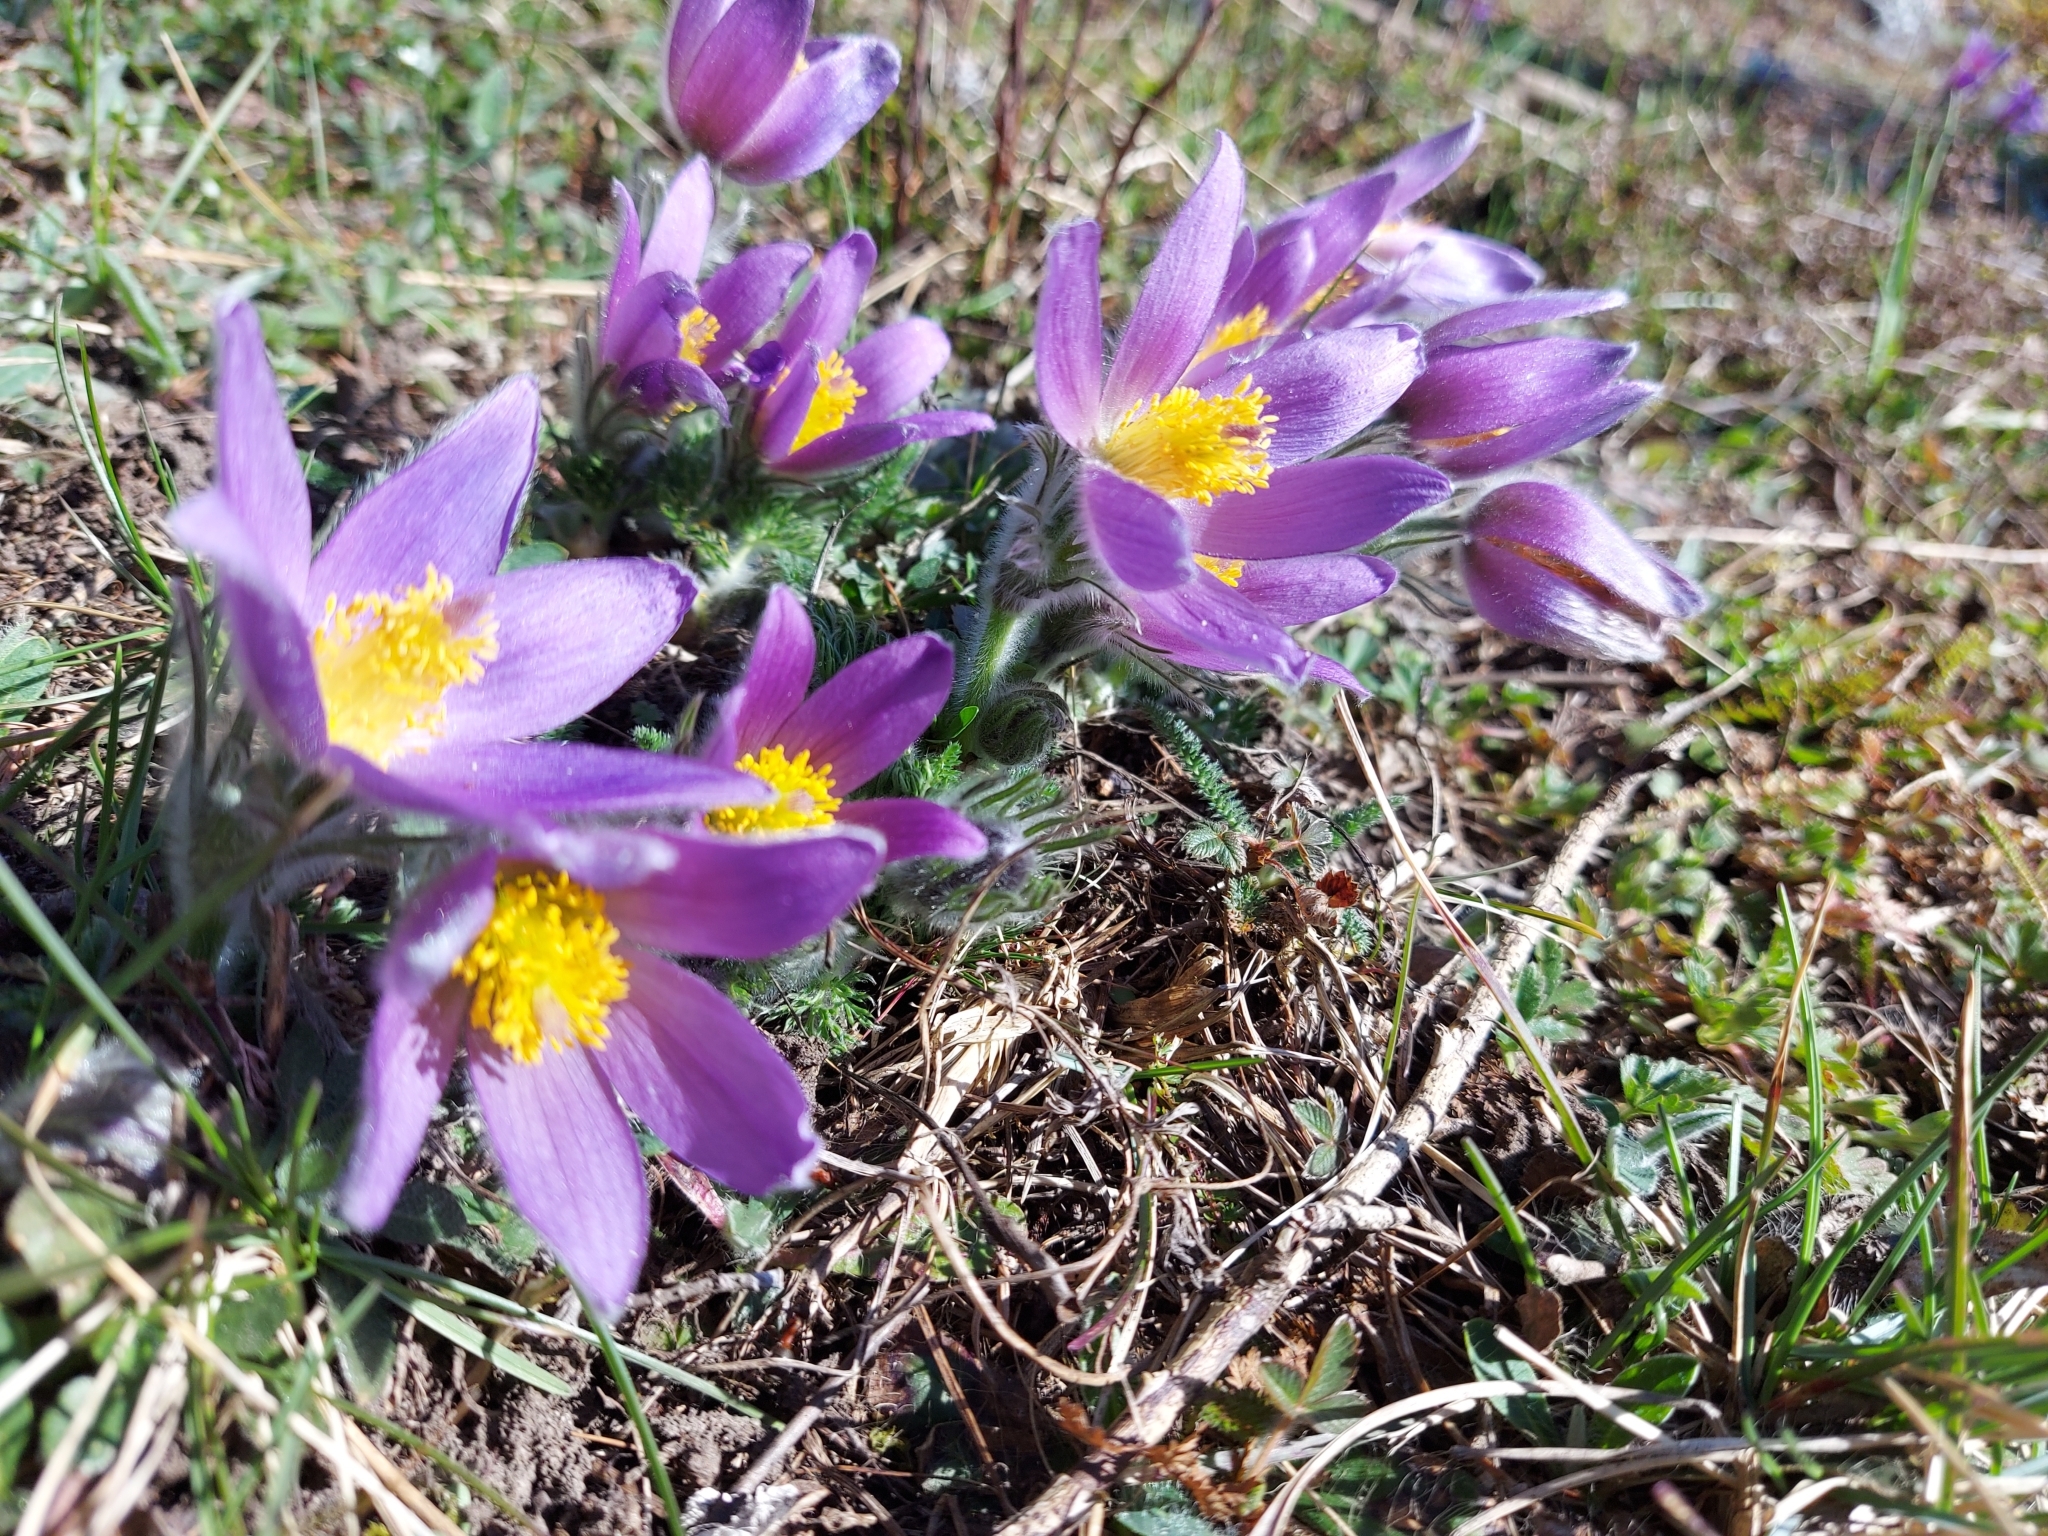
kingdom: Plantae
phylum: Tracheophyta
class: Magnoliopsida
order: Ranunculales
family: Ranunculaceae
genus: Pulsatilla
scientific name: Pulsatilla vulgaris
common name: Pasqueflower
